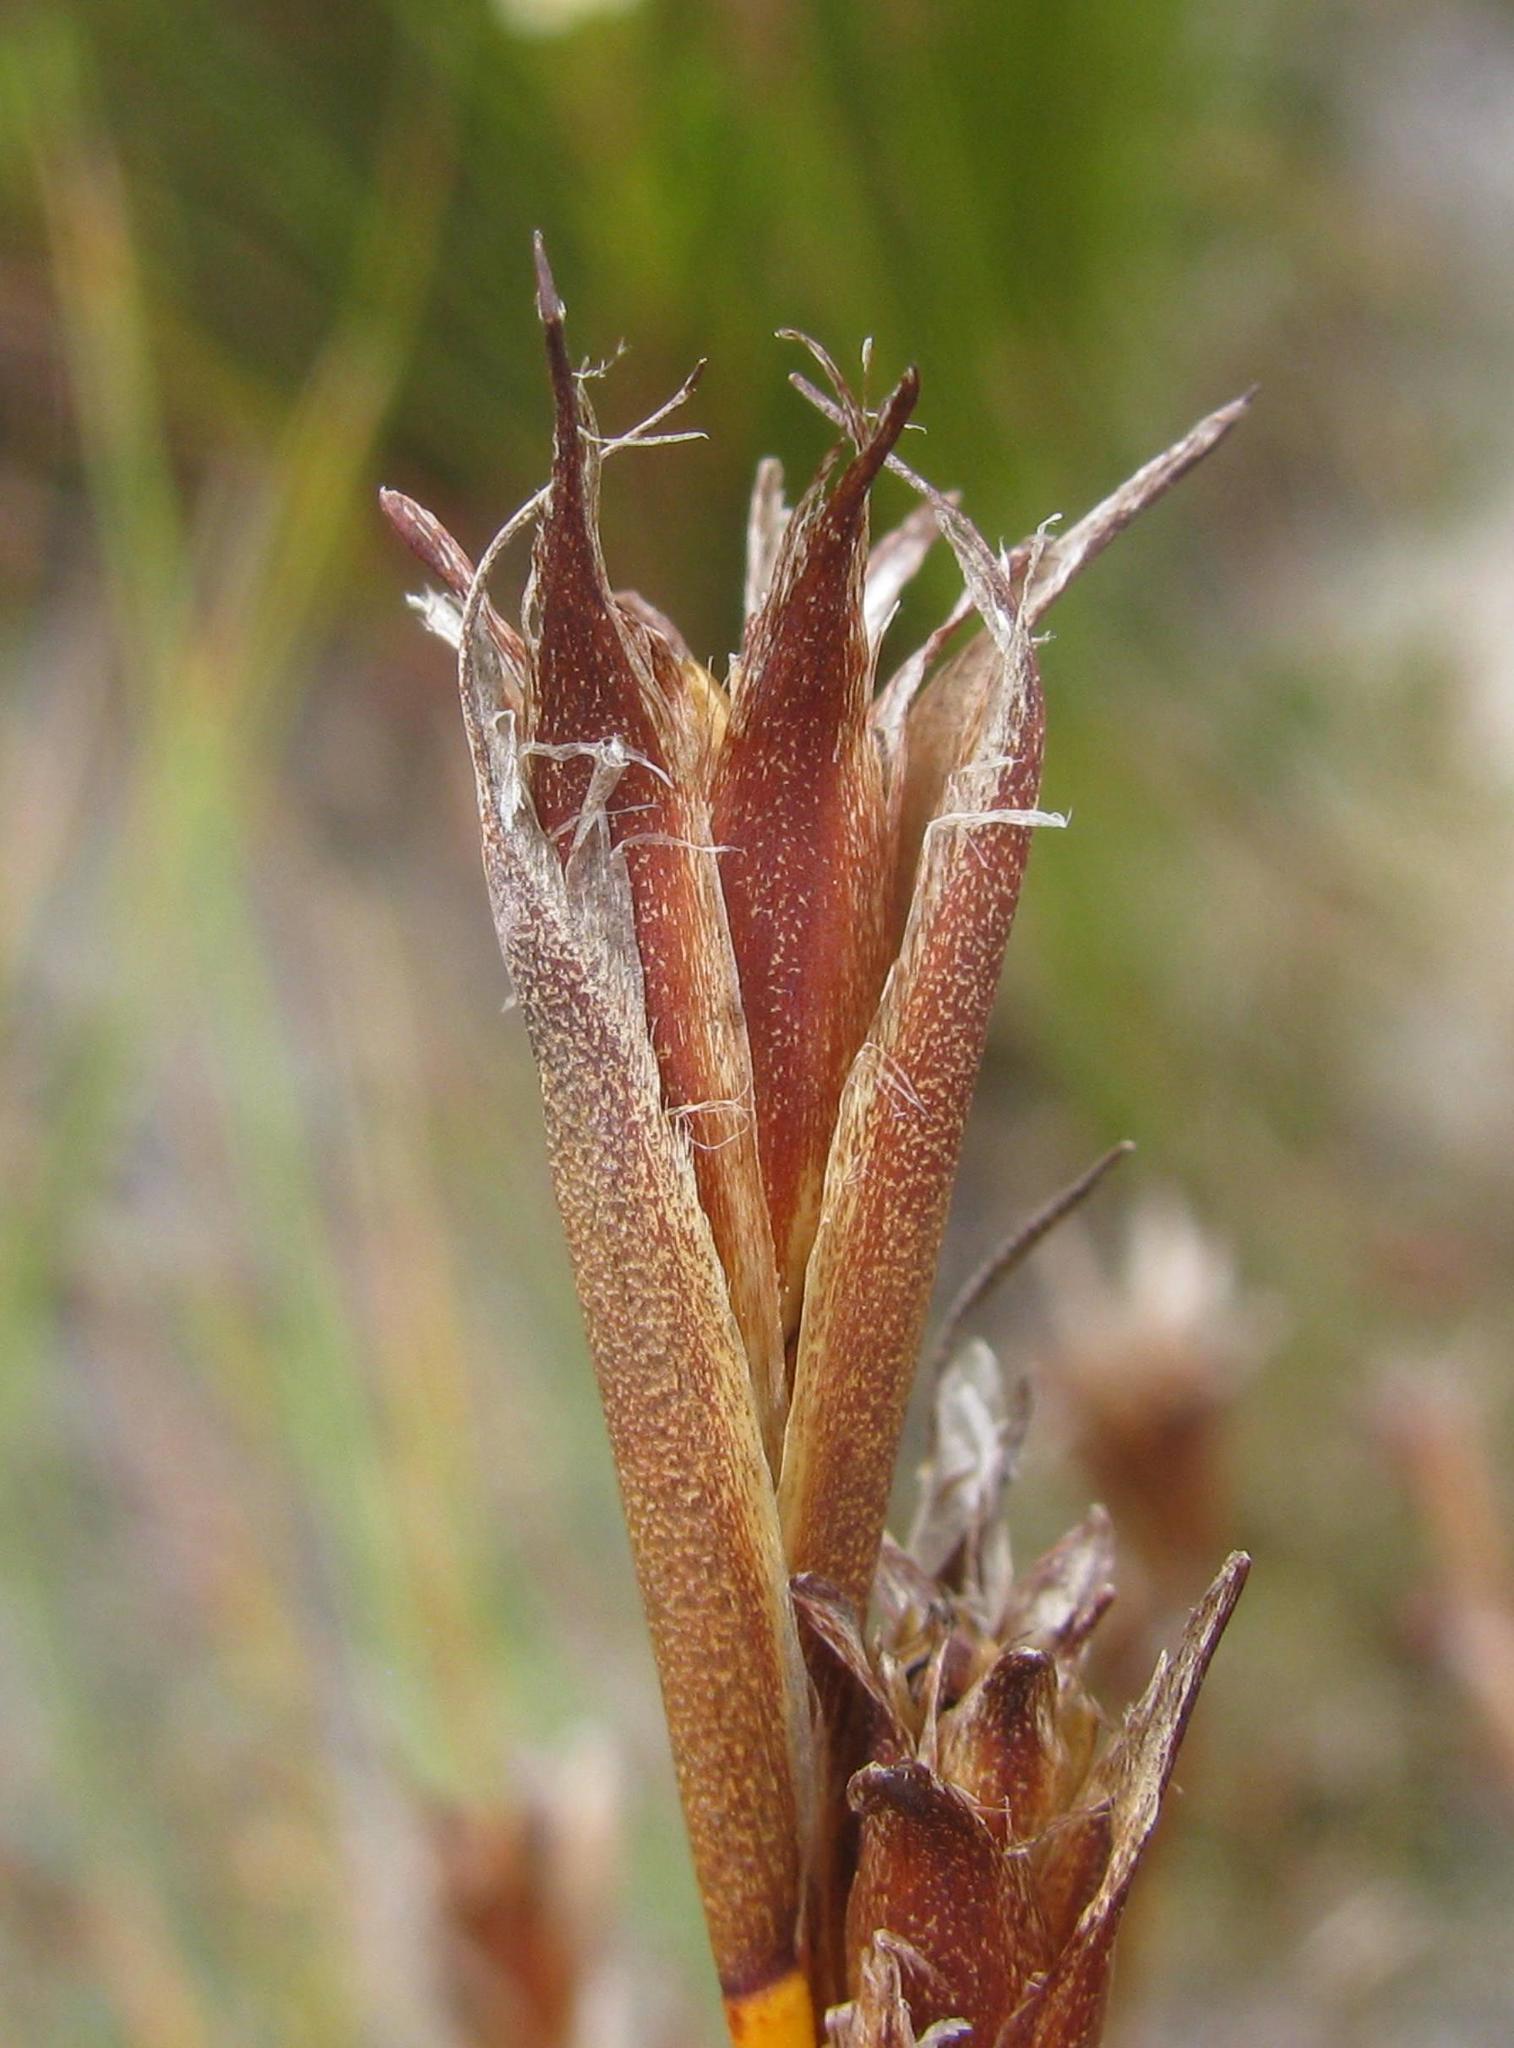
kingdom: Plantae
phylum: Tracheophyta
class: Liliopsida
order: Poales
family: Restionaceae
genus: Restio
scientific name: Restio purpurascens
